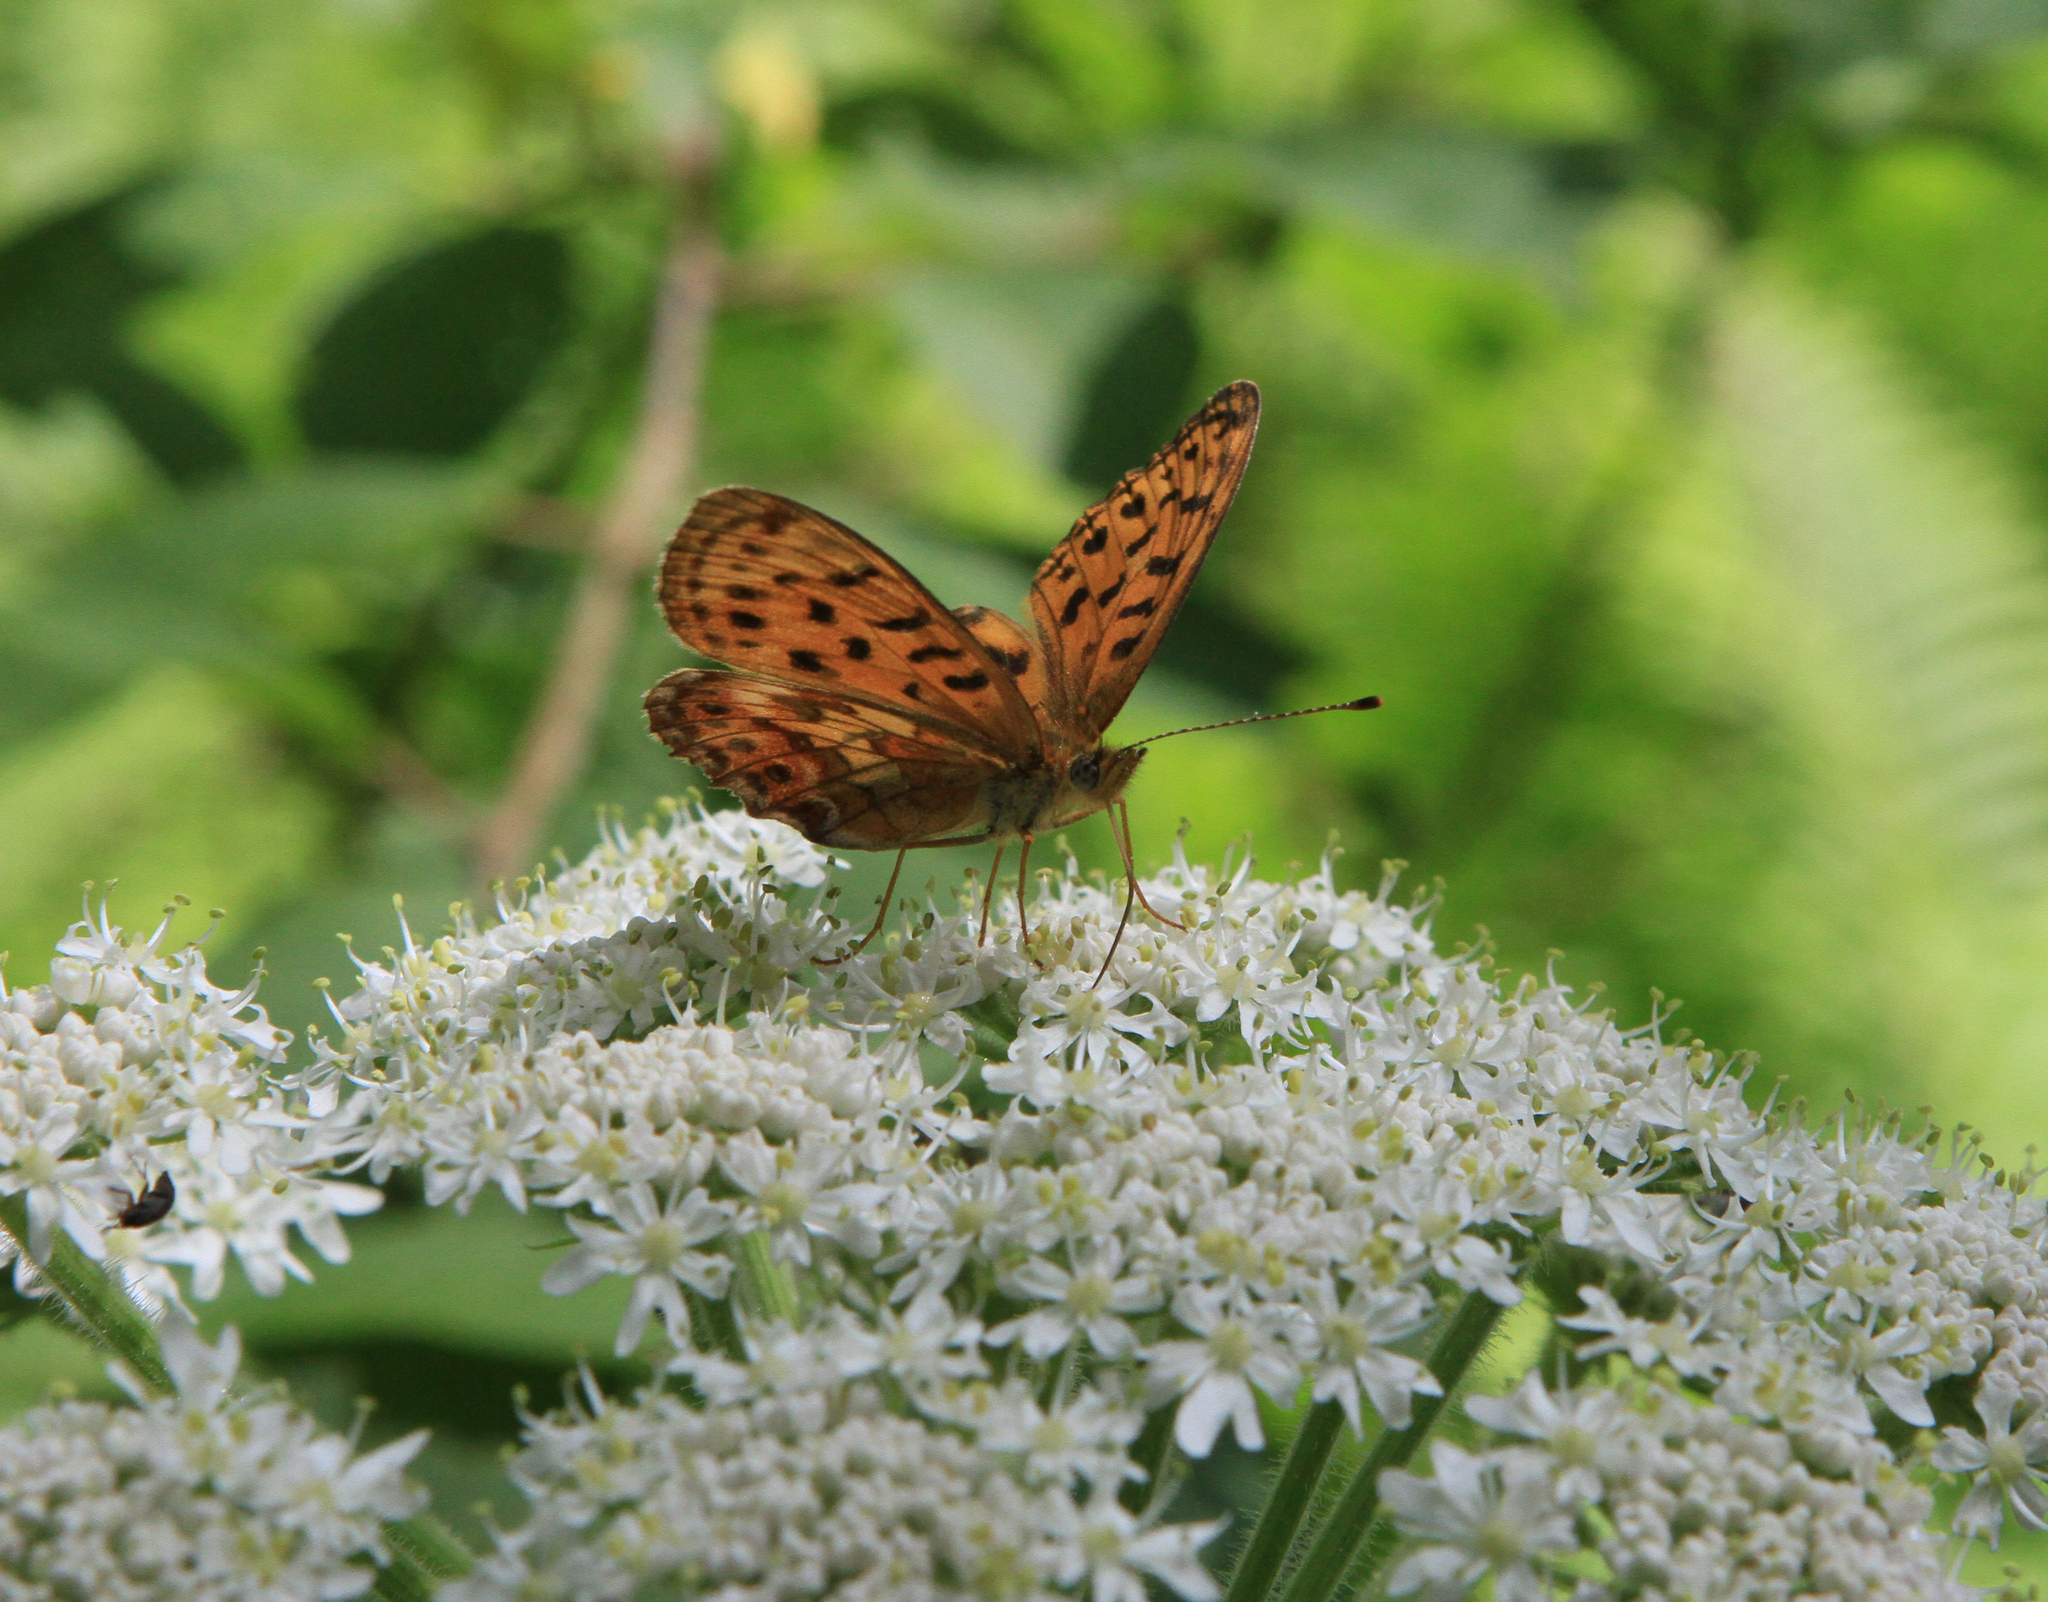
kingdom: Animalia
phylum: Arthropoda
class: Insecta
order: Lepidoptera
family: Nymphalidae
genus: Boloria
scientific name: Boloria thore
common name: Thor's fritillary
